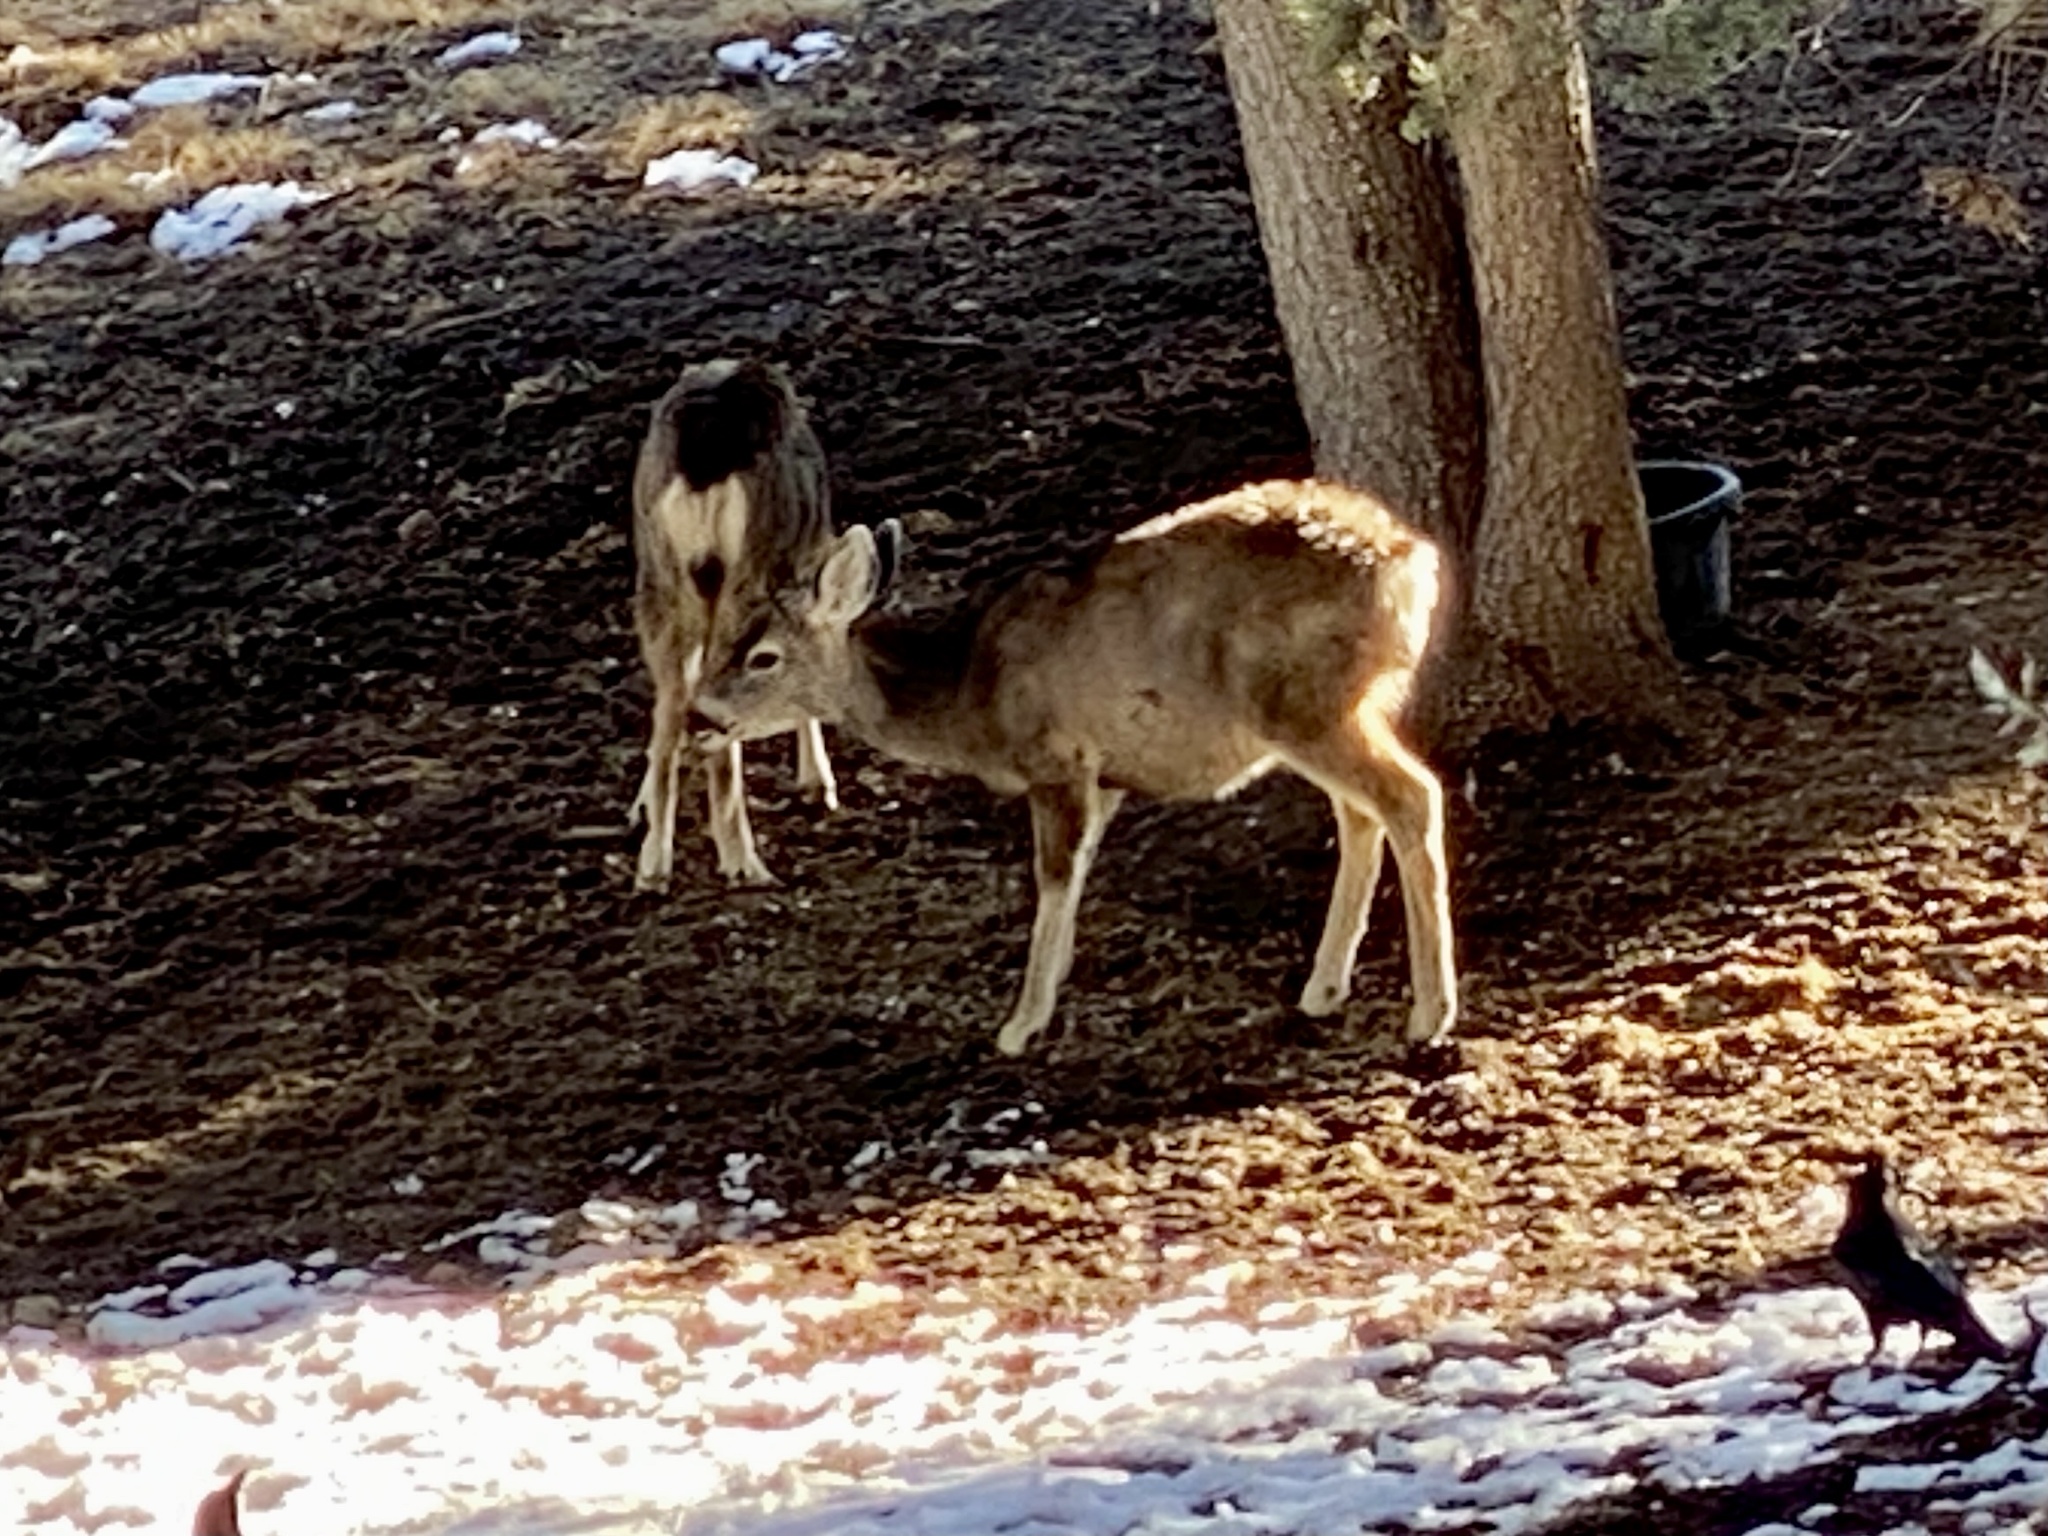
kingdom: Animalia
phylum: Chordata
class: Mammalia
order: Artiodactyla
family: Cervidae
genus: Odocoileus
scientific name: Odocoileus hemionus
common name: Mule deer
